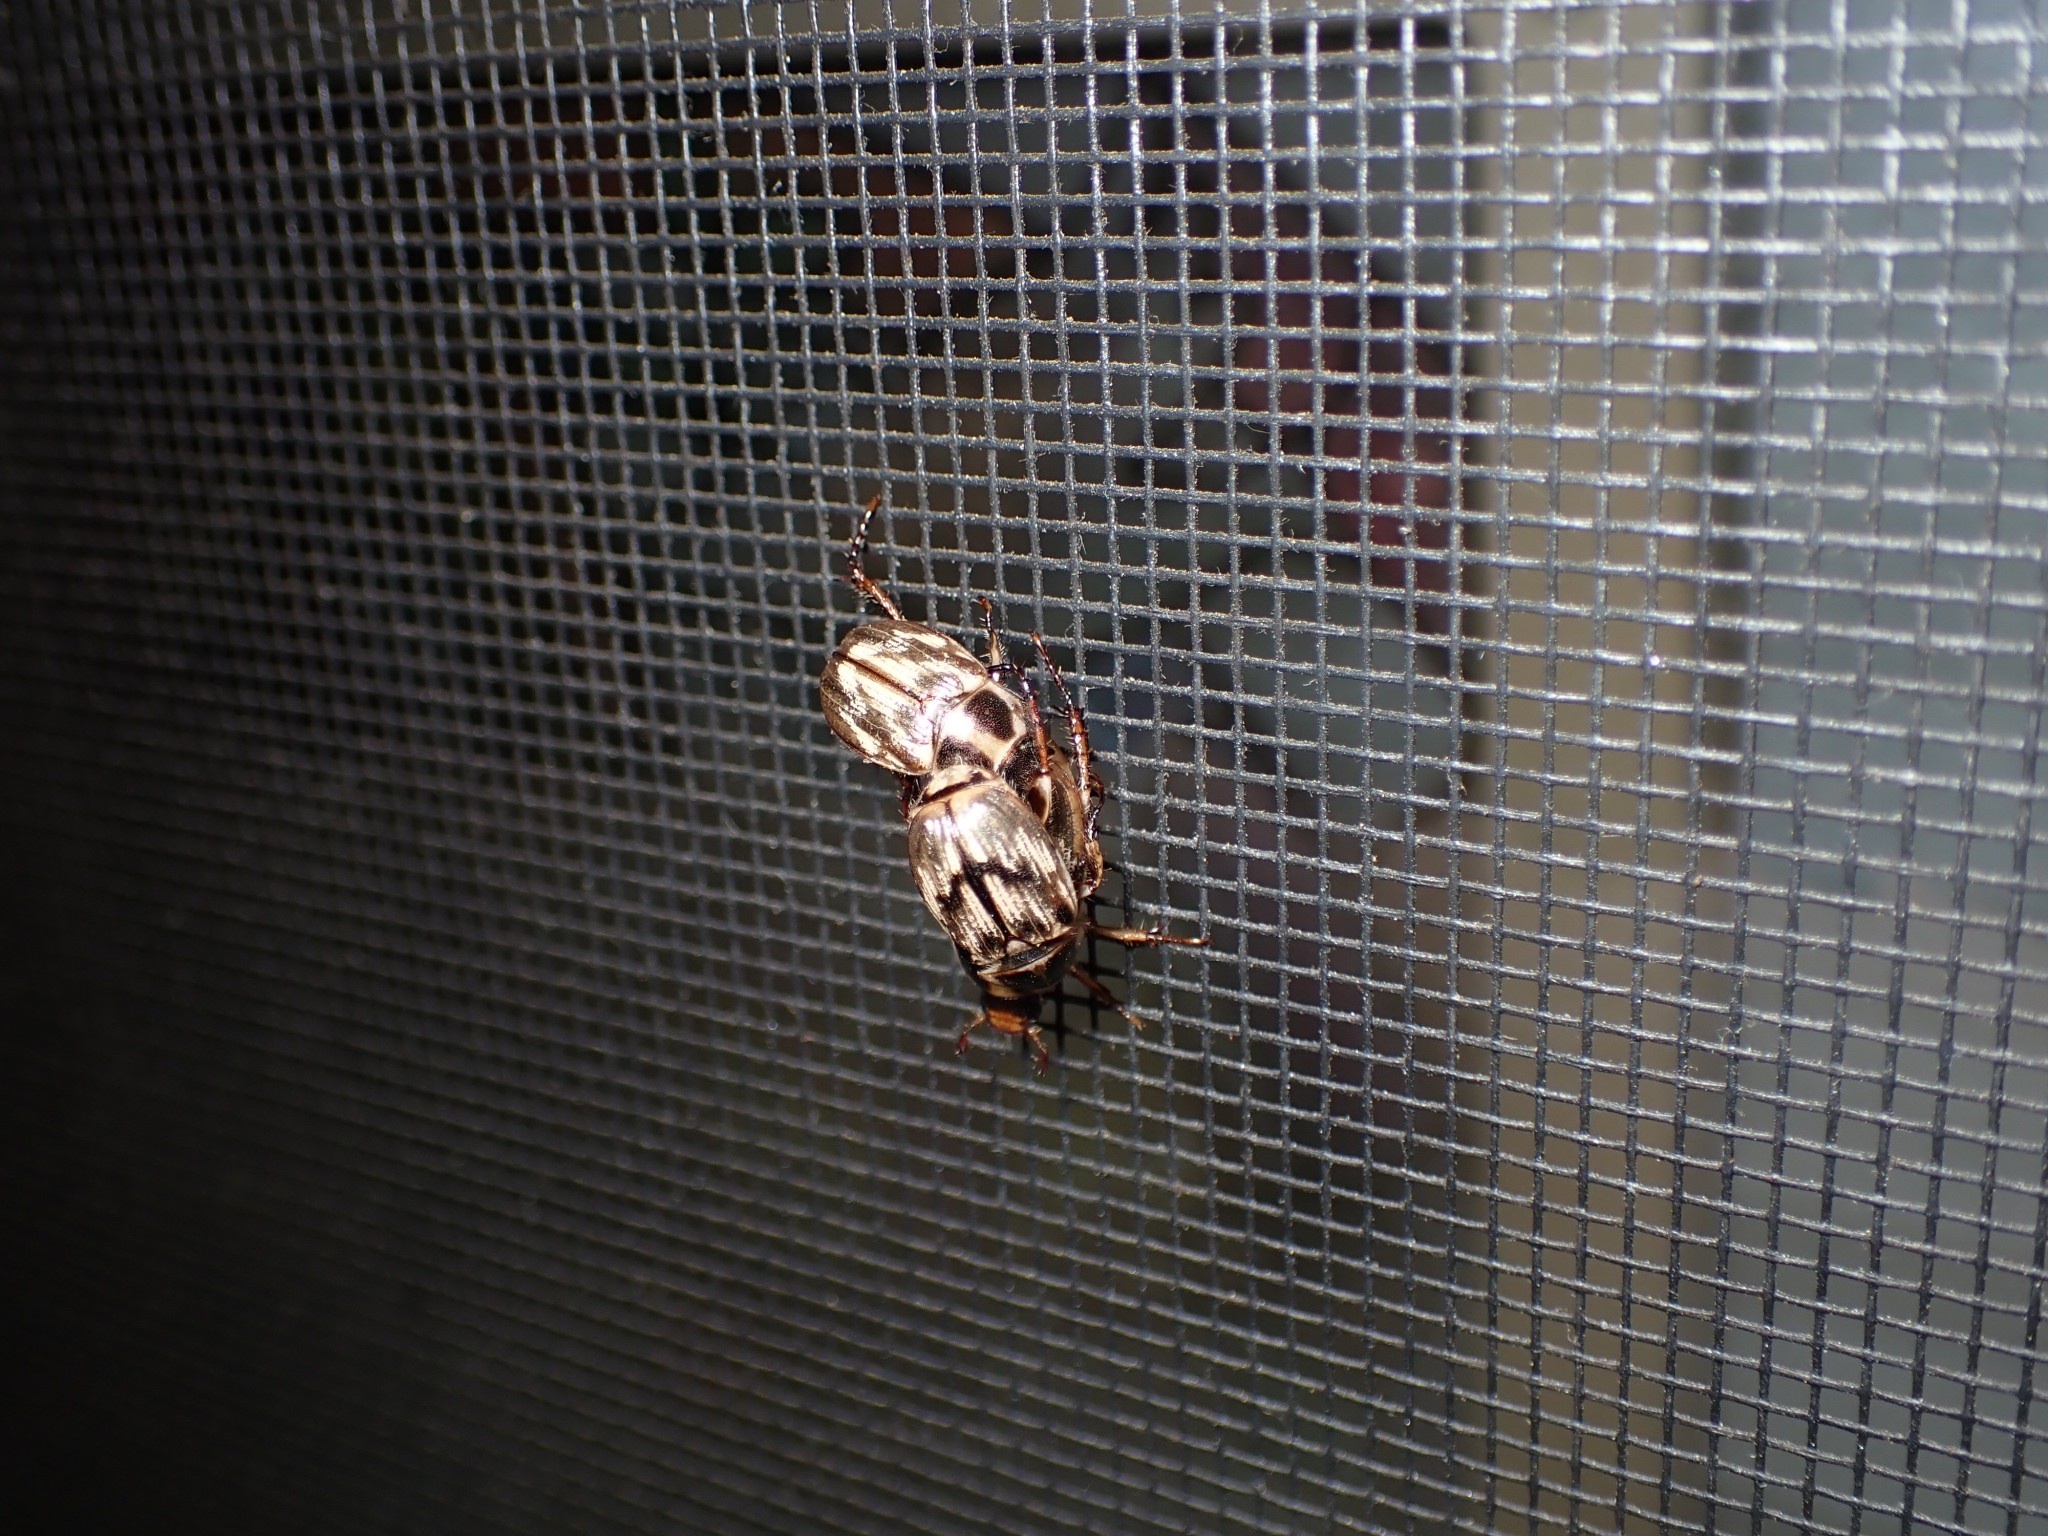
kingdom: Animalia
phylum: Arthropoda
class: Insecta
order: Coleoptera
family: Scarabaeidae
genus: Exomala
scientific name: Exomala orientalis
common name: Oriental beetle
